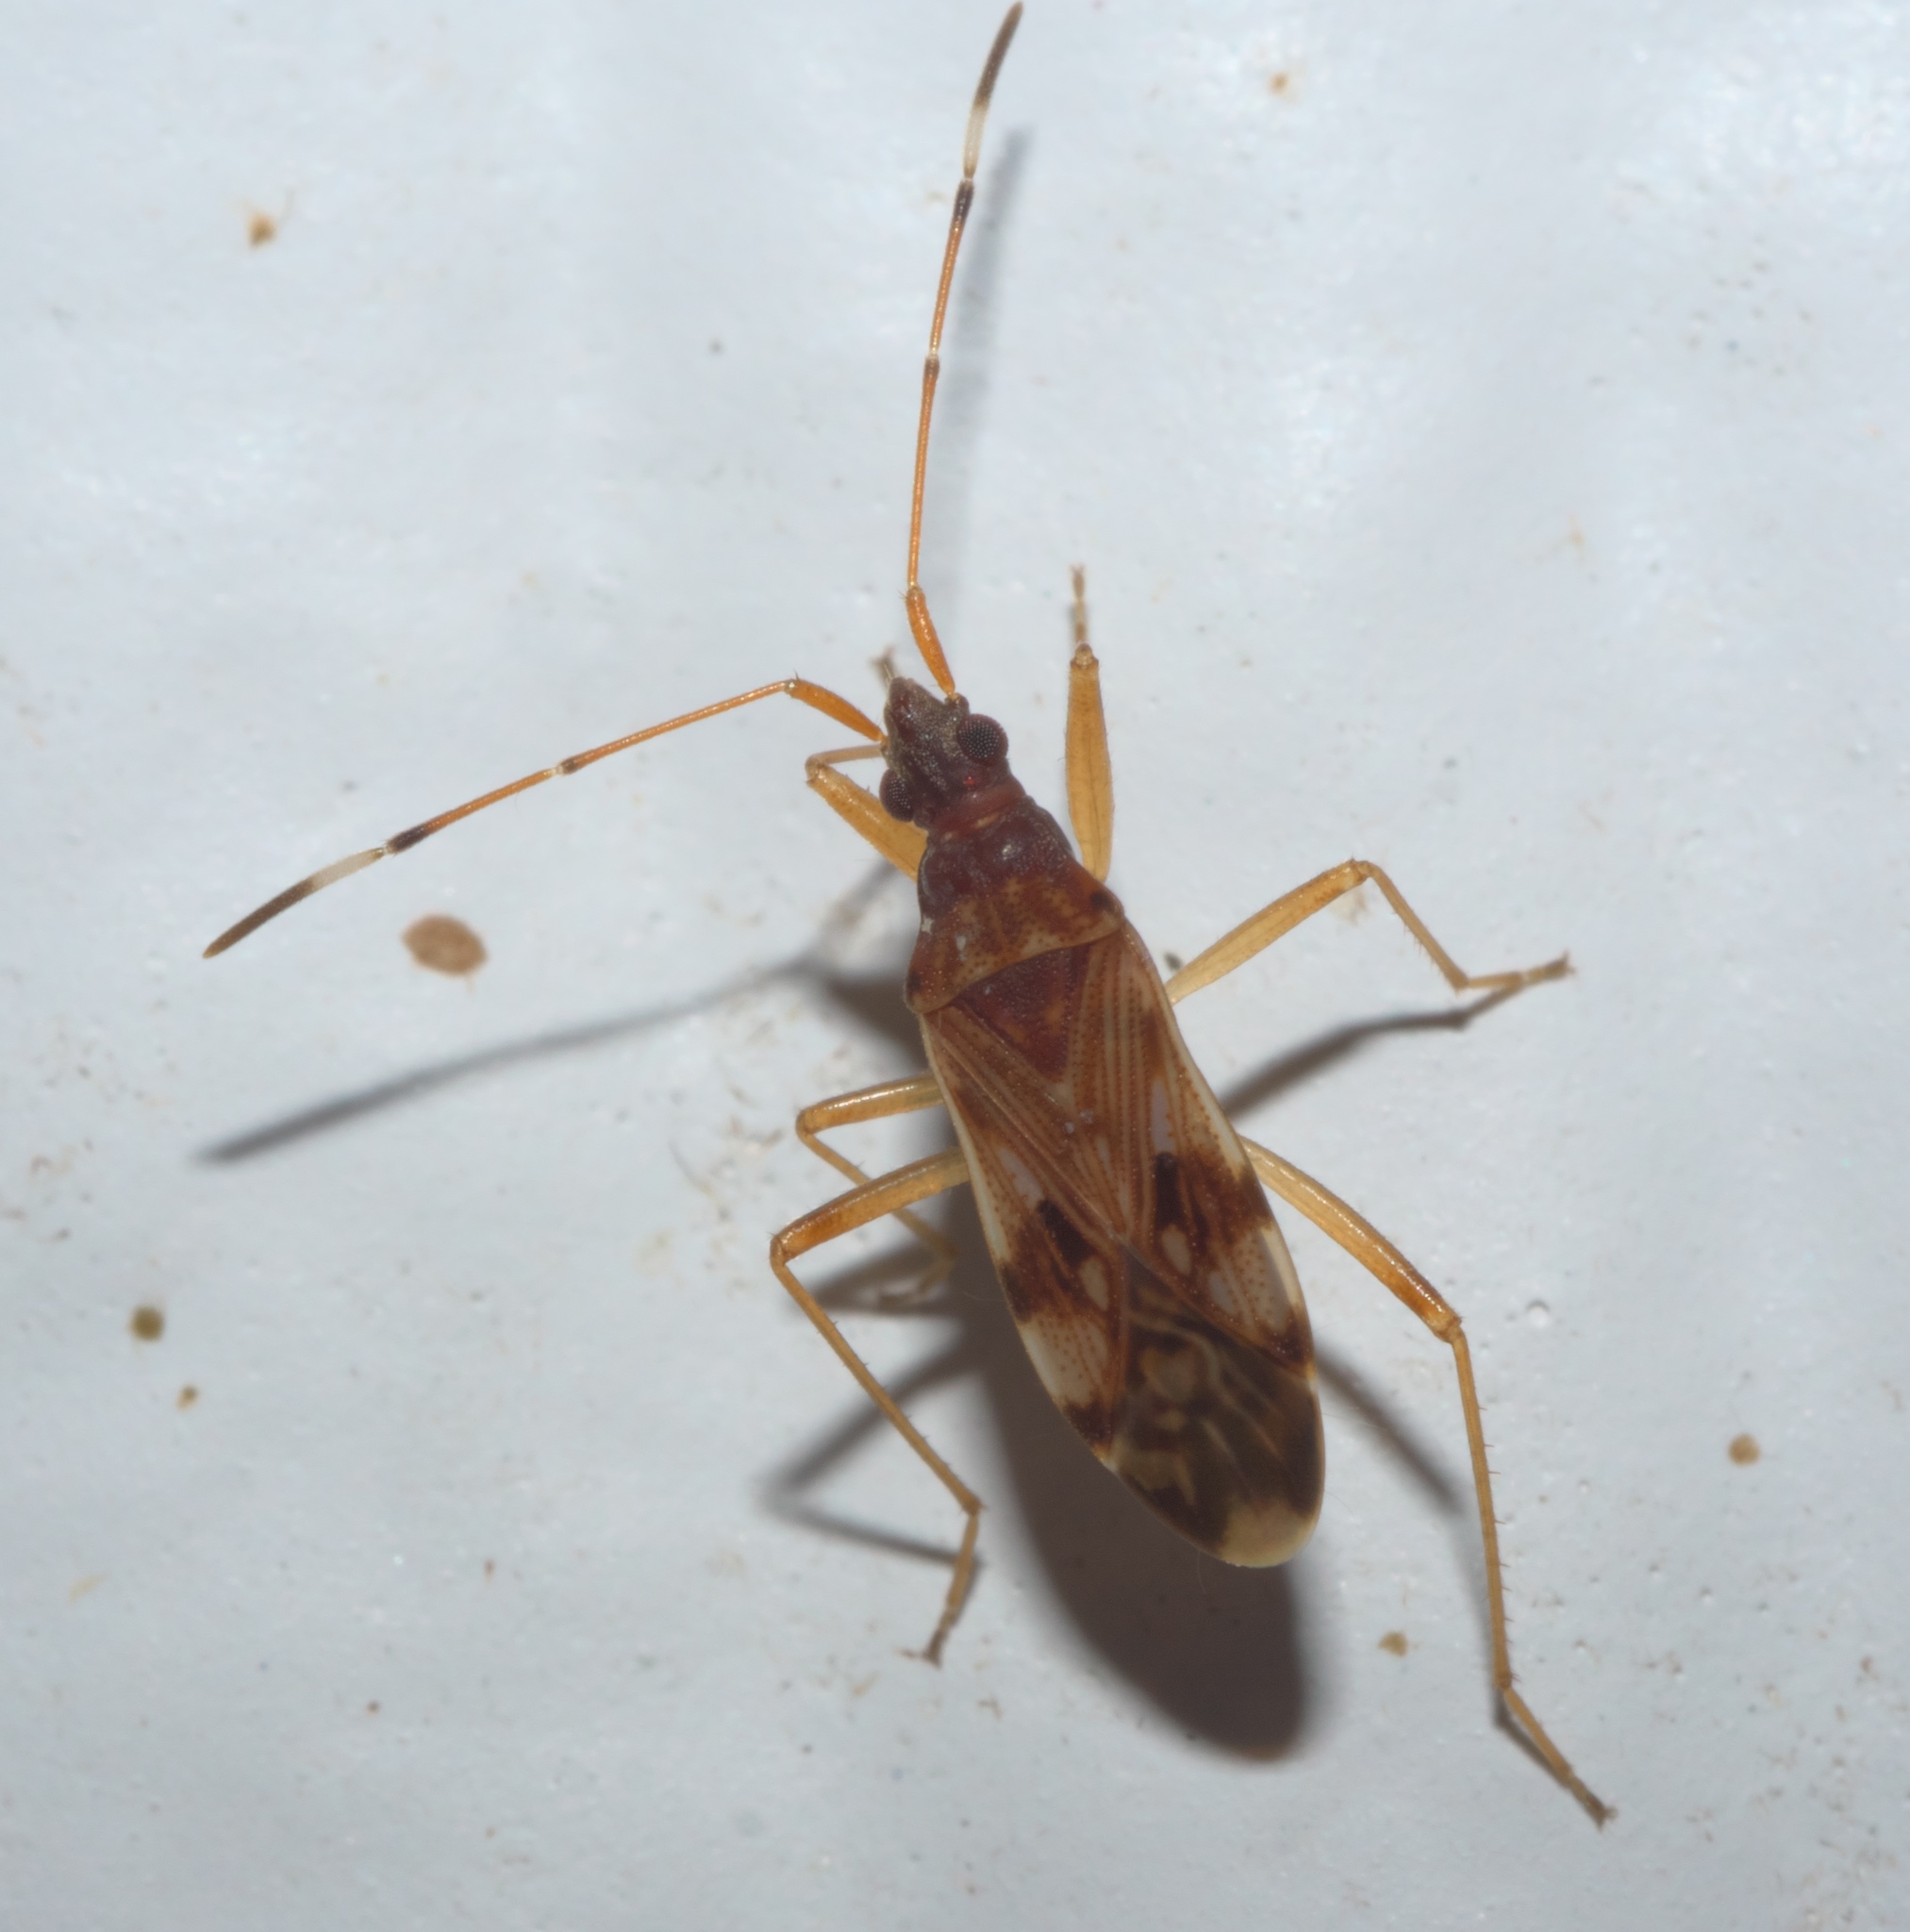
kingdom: Animalia
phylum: Arthropoda
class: Insecta
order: Hemiptera
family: Rhyparochromidae
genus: Ozophora
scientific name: Ozophora picturata
